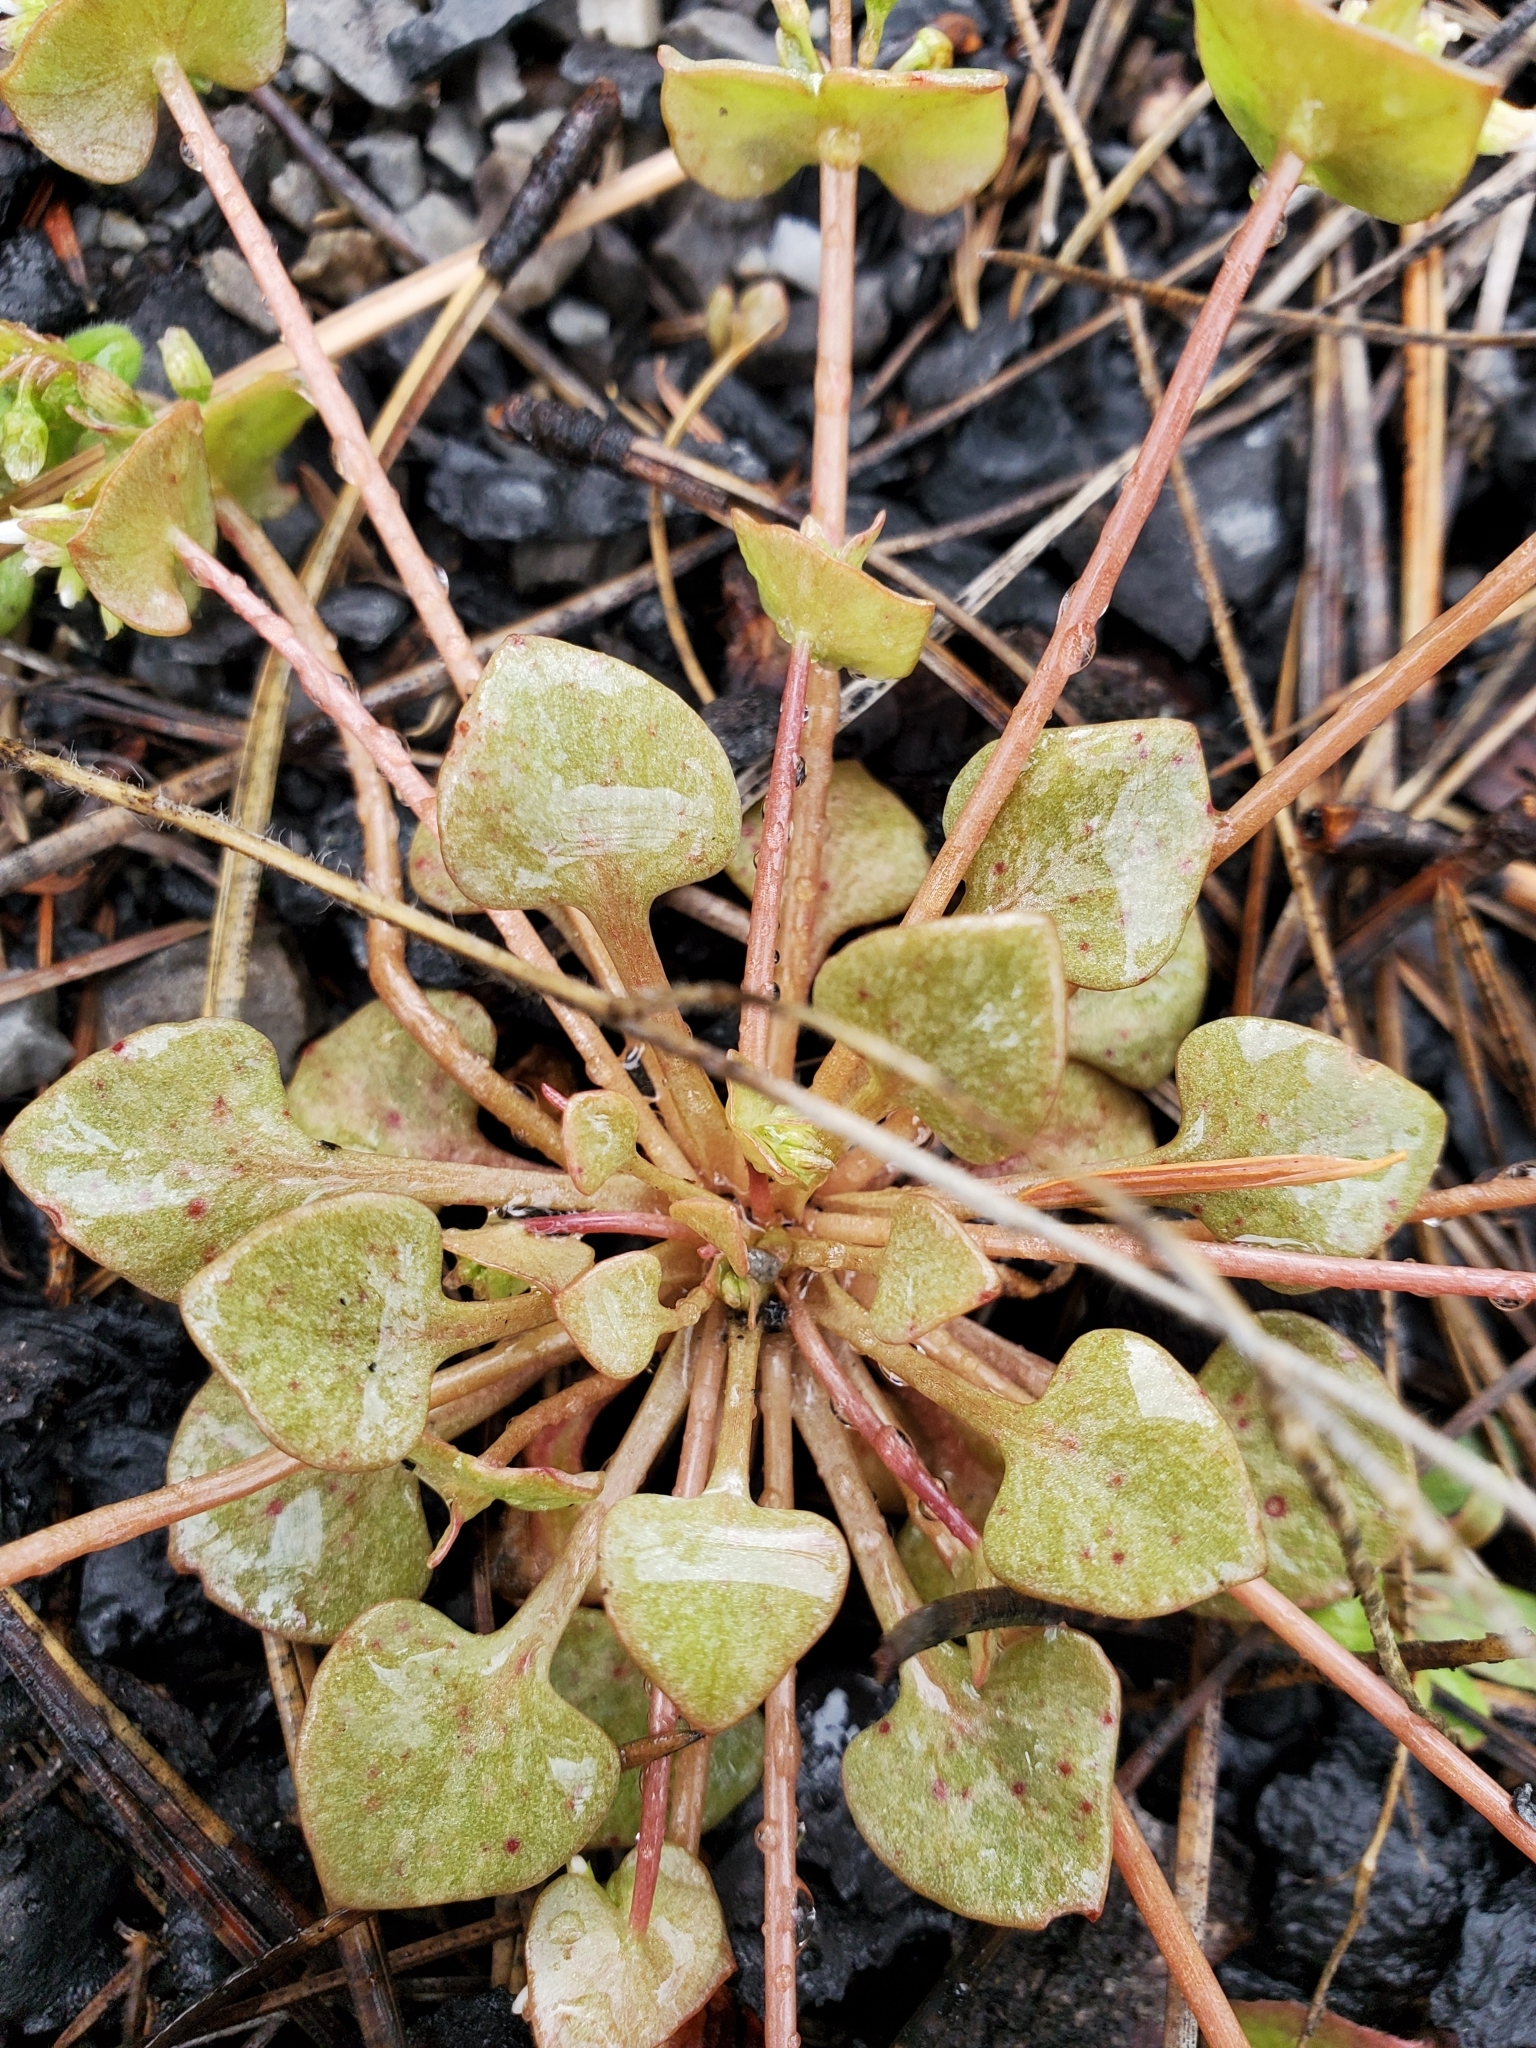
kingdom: Plantae
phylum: Tracheophyta
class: Magnoliopsida
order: Caryophyllales
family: Montiaceae
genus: Claytonia
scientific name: Claytonia rubra
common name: Erubescent miner's-lettuce
